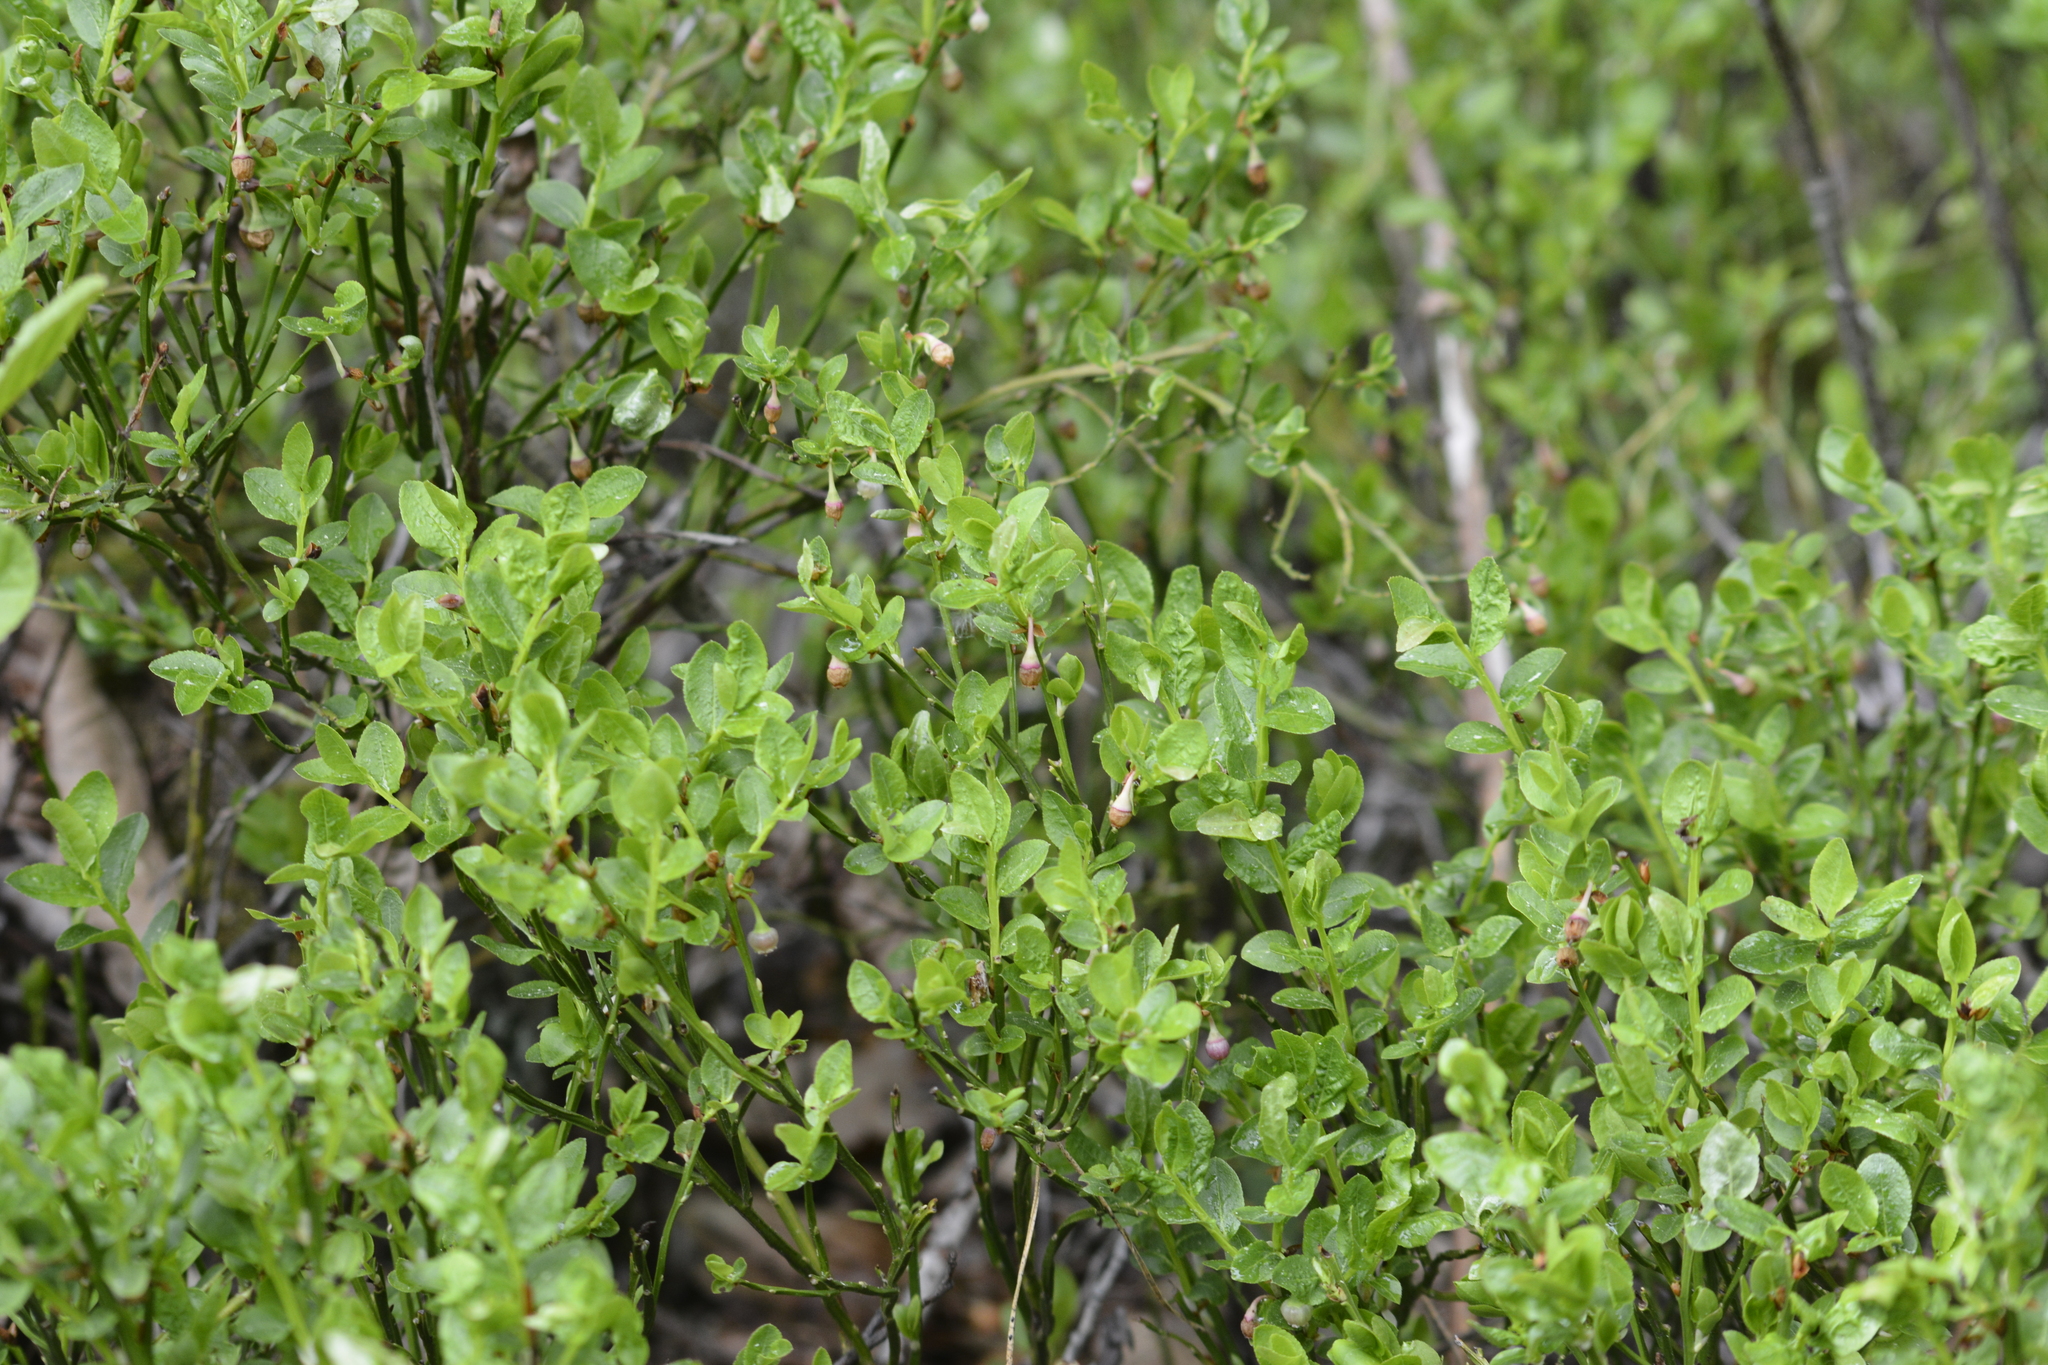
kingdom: Plantae
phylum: Tracheophyta
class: Magnoliopsida
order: Ericales
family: Ericaceae
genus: Vaccinium
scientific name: Vaccinium myrtillus
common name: Bilberry
